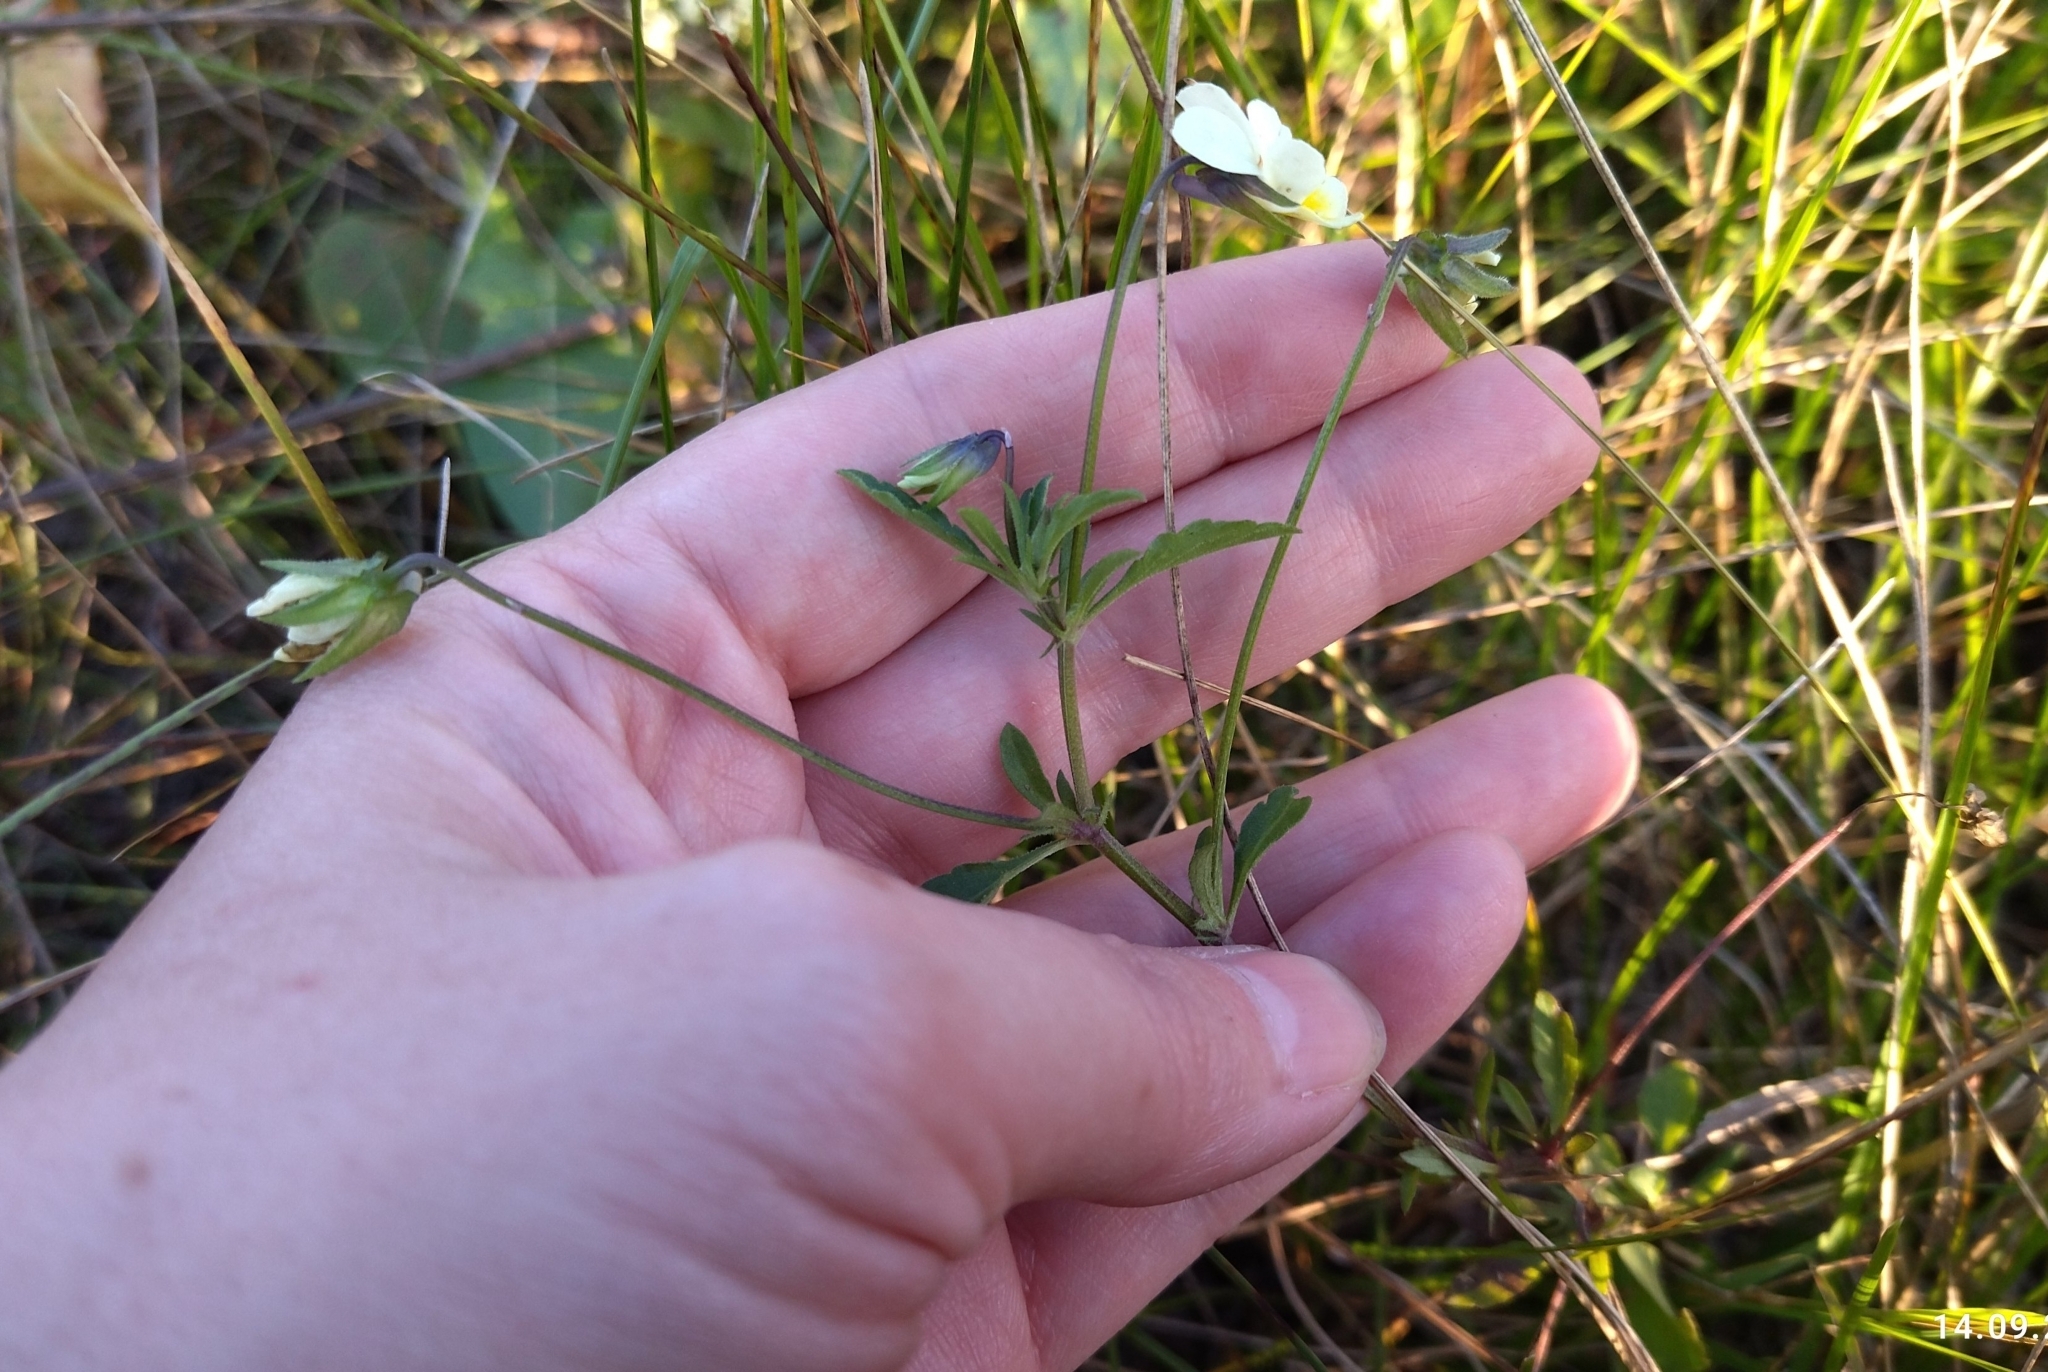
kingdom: Plantae
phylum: Tracheophyta
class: Magnoliopsida
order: Malpighiales
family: Violaceae
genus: Viola
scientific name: Viola arvensis
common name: Field pansy
